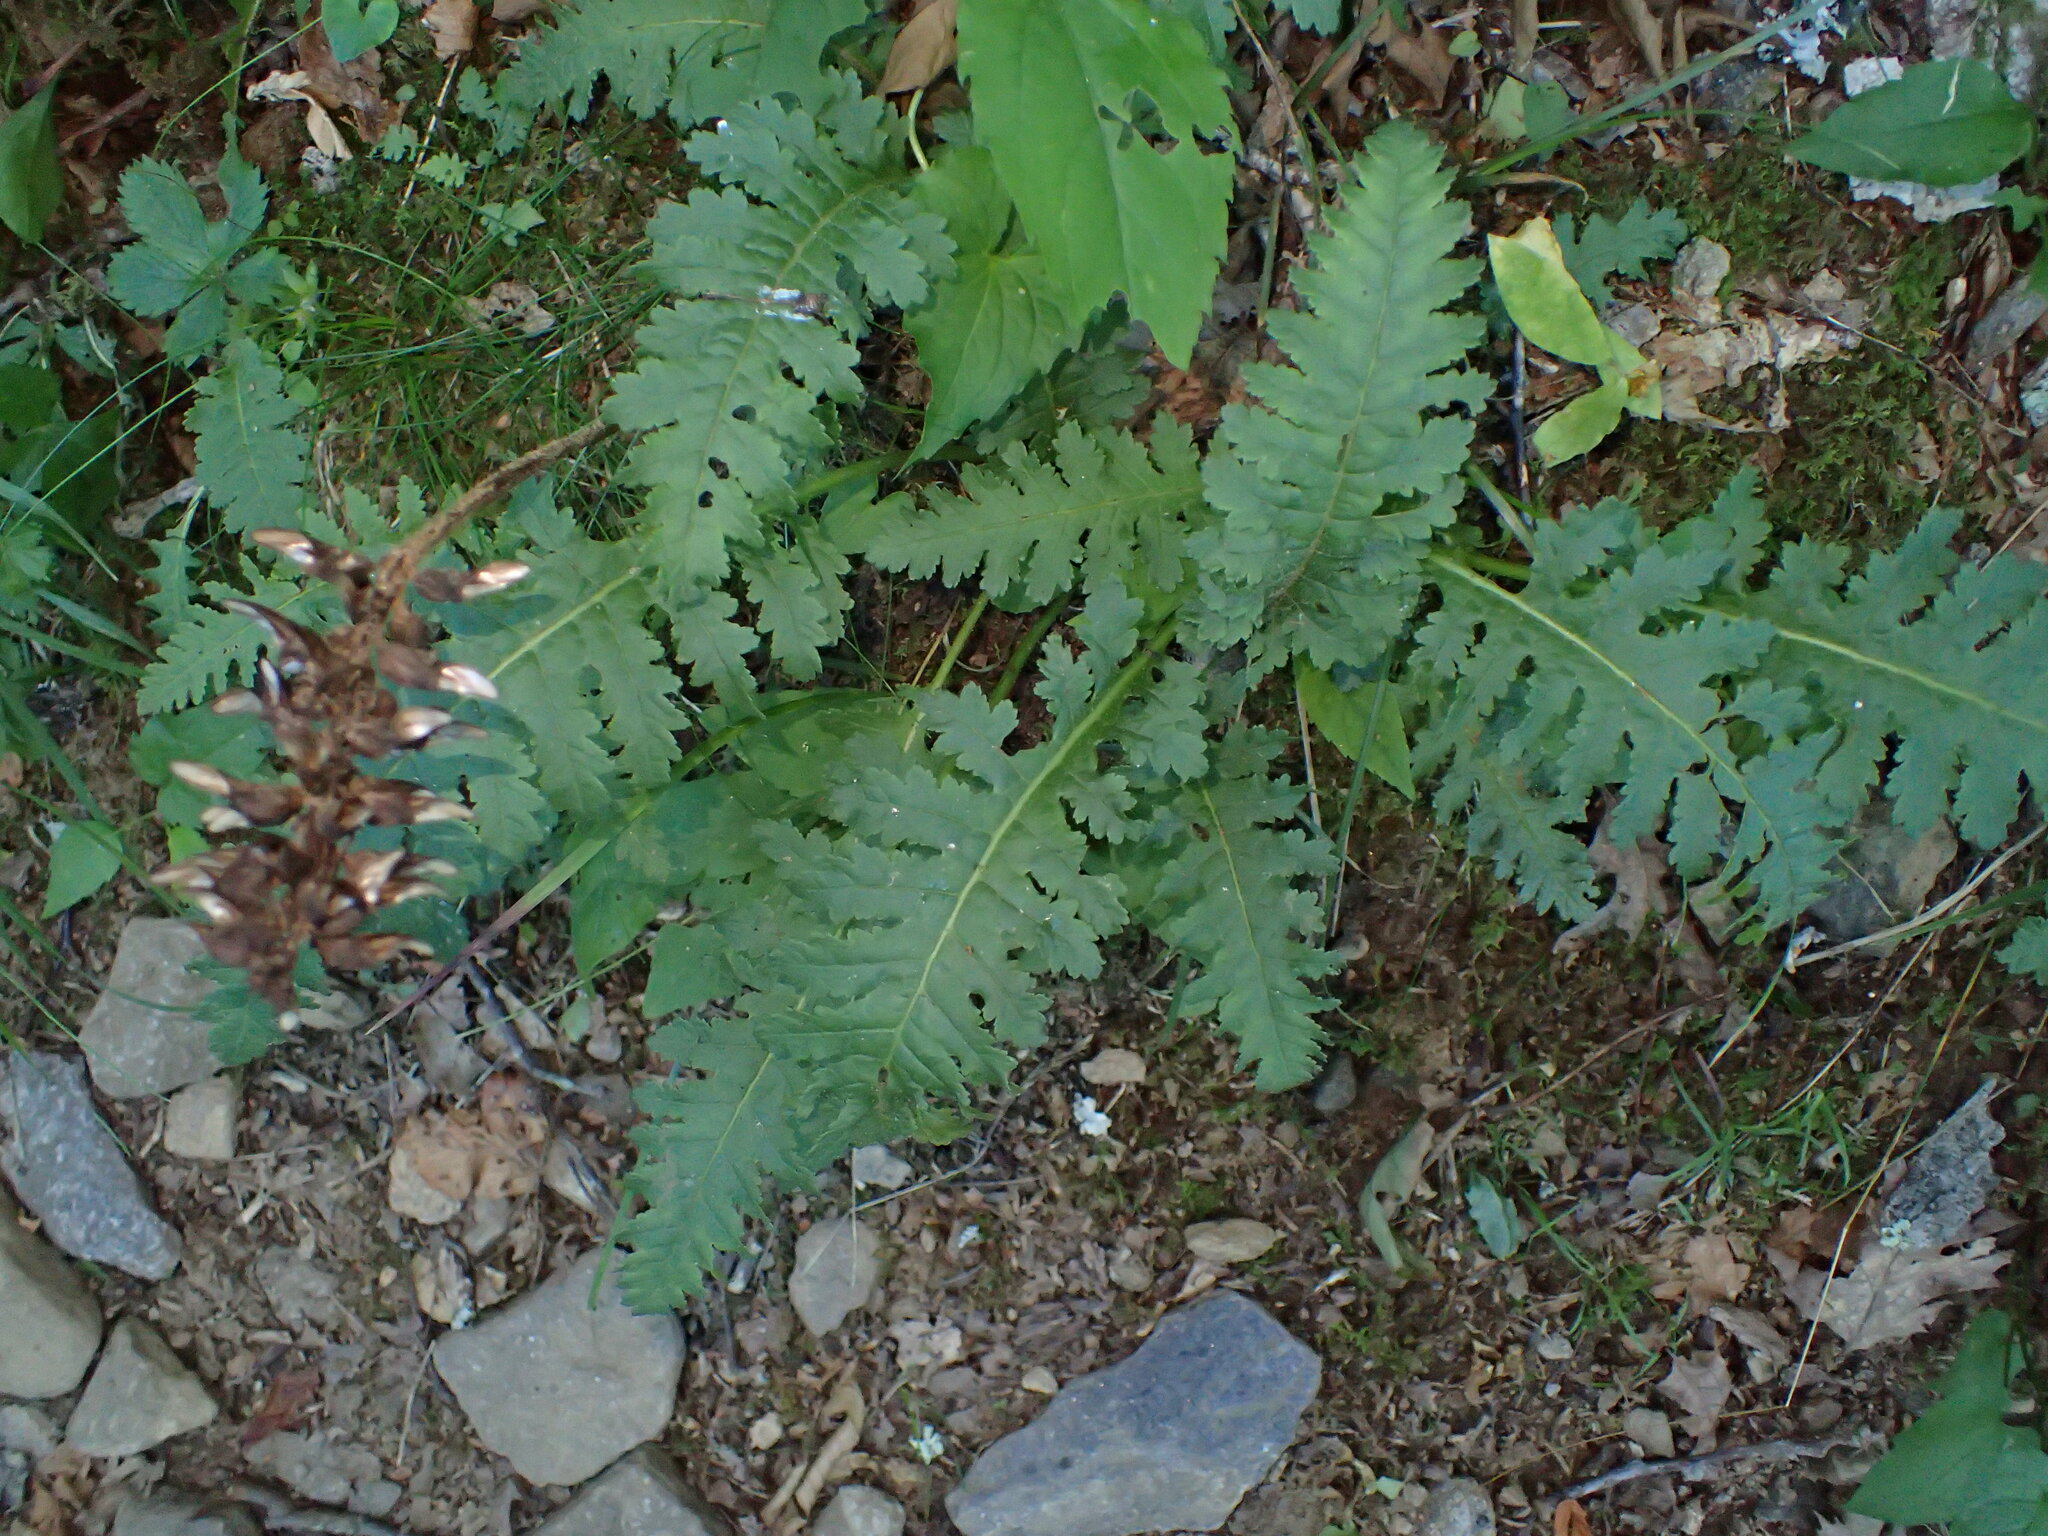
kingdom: Plantae
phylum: Tracheophyta
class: Magnoliopsida
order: Lamiales
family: Orobanchaceae
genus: Pedicularis
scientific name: Pedicularis canadensis
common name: Early lousewort
